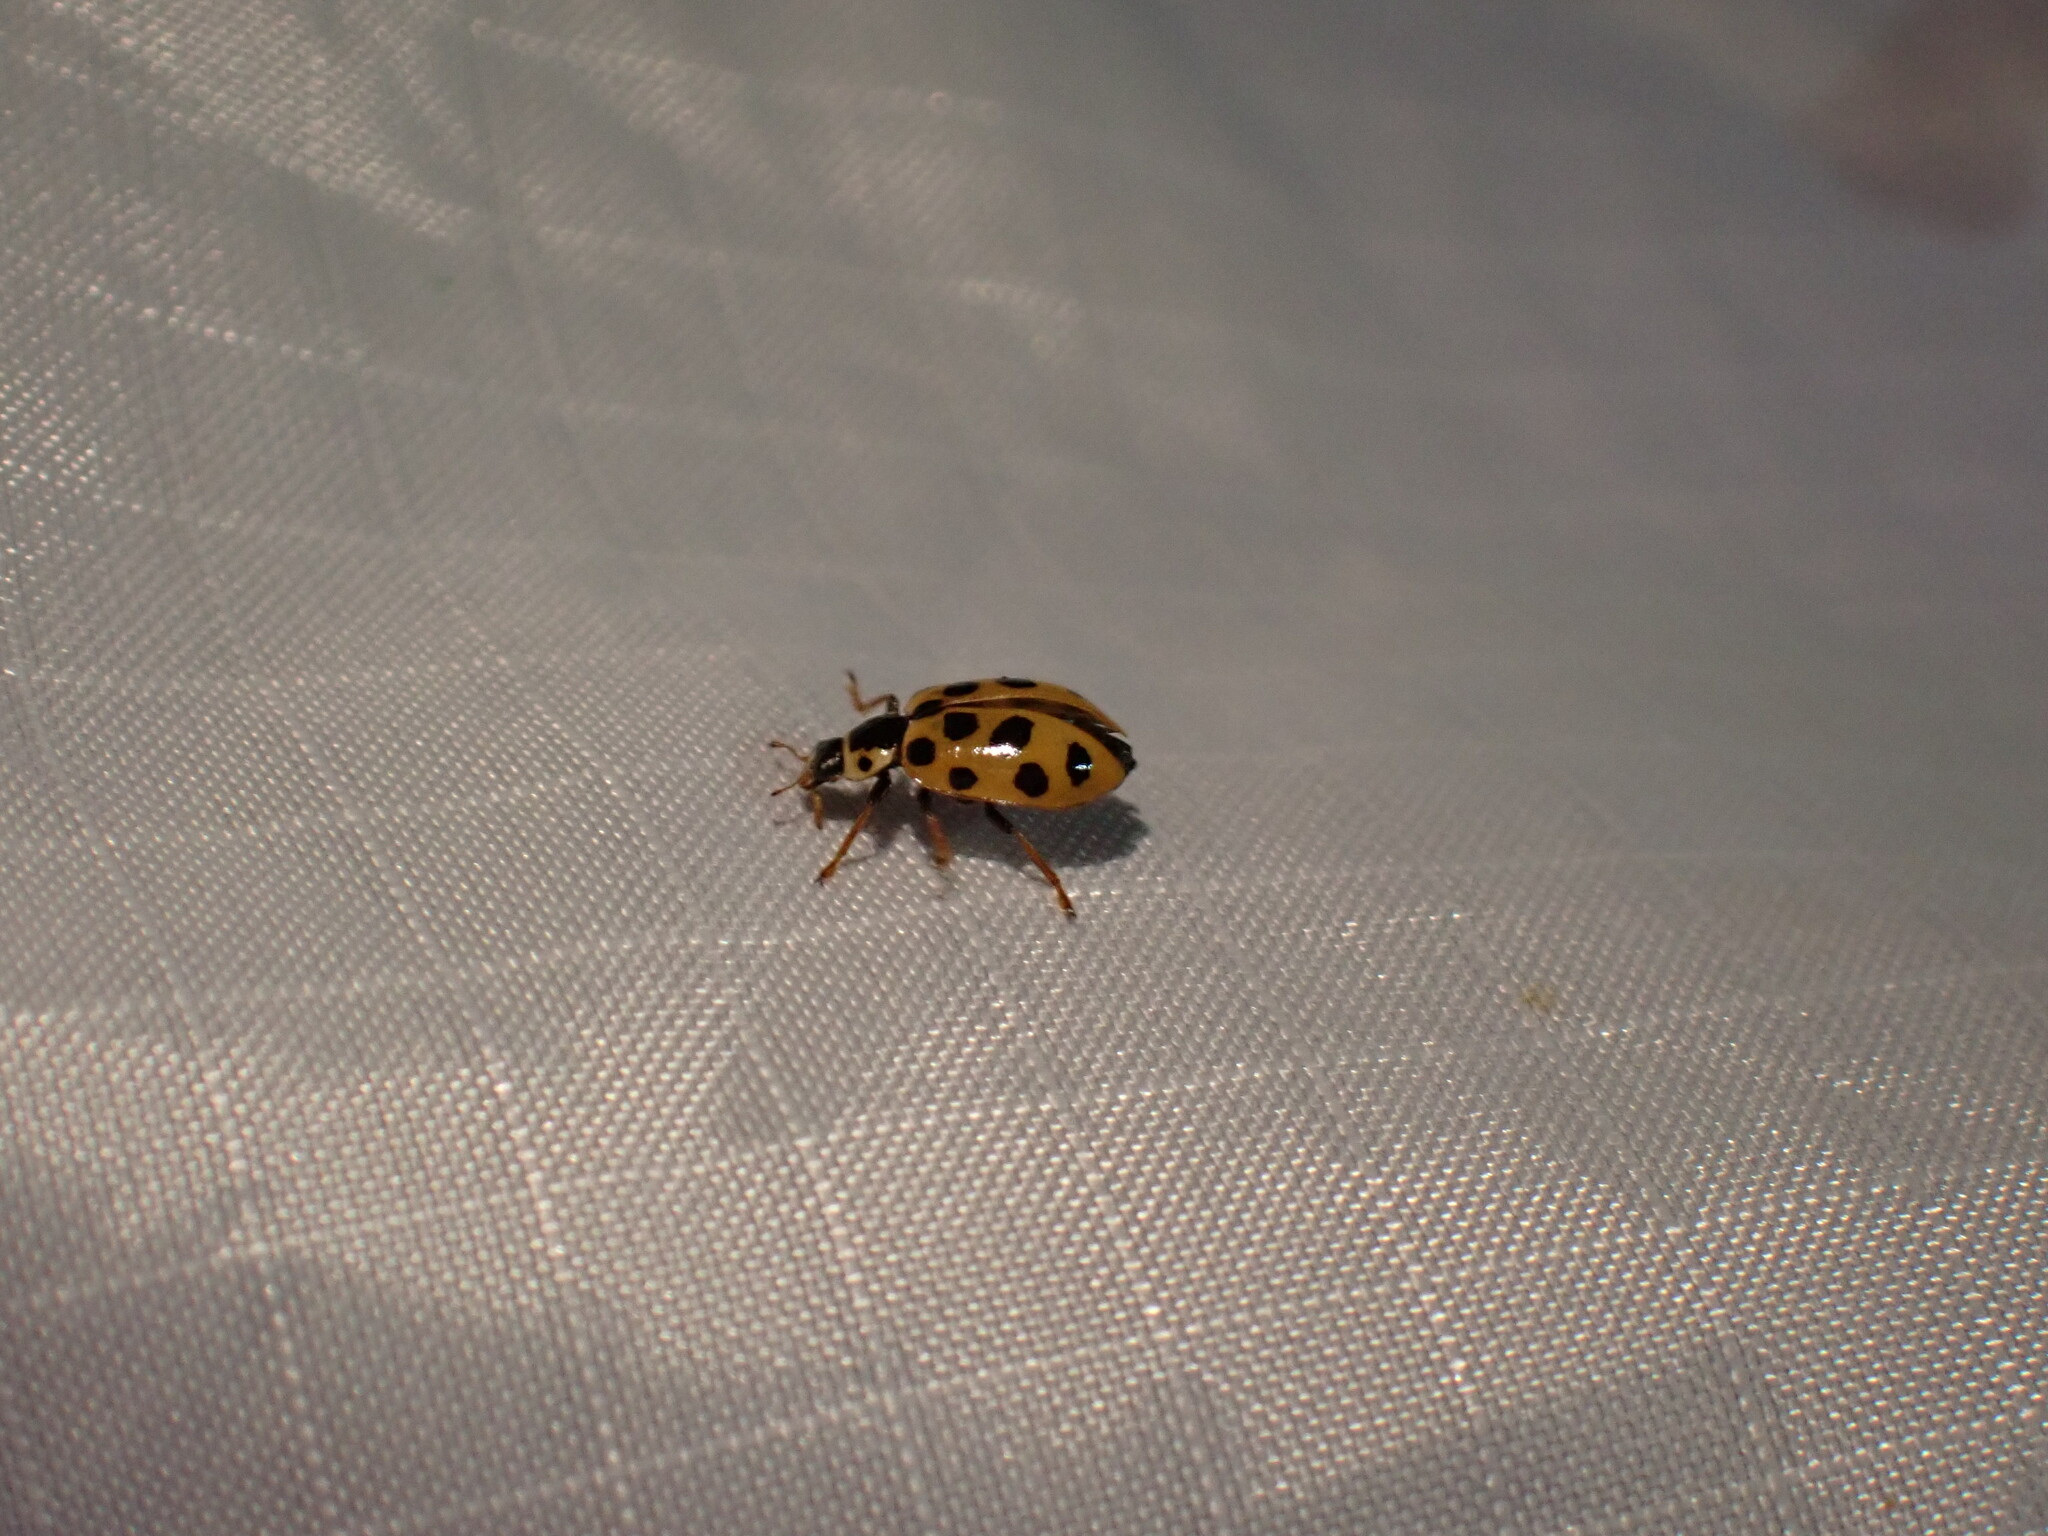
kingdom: Animalia
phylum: Arthropoda
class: Insecta
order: Coleoptera
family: Coccinellidae
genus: Hippodamia
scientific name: Hippodamia tredecimpunctata
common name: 13-spot ladybird
